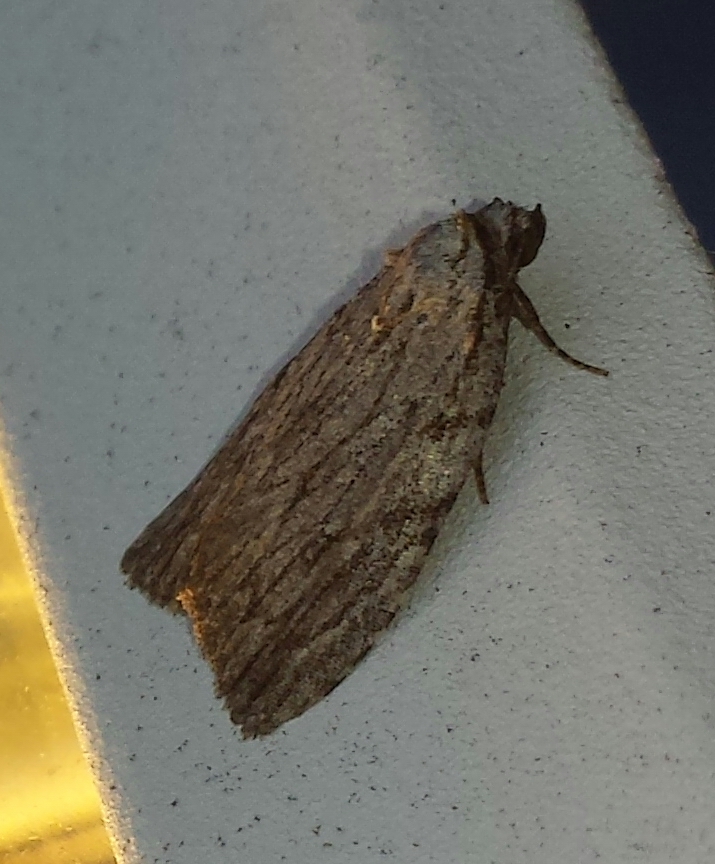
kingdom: Animalia
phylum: Arthropoda
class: Insecta
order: Lepidoptera
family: Noctuidae
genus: Balsa
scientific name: Balsa tristrigella
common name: Three-lined balsa moth
